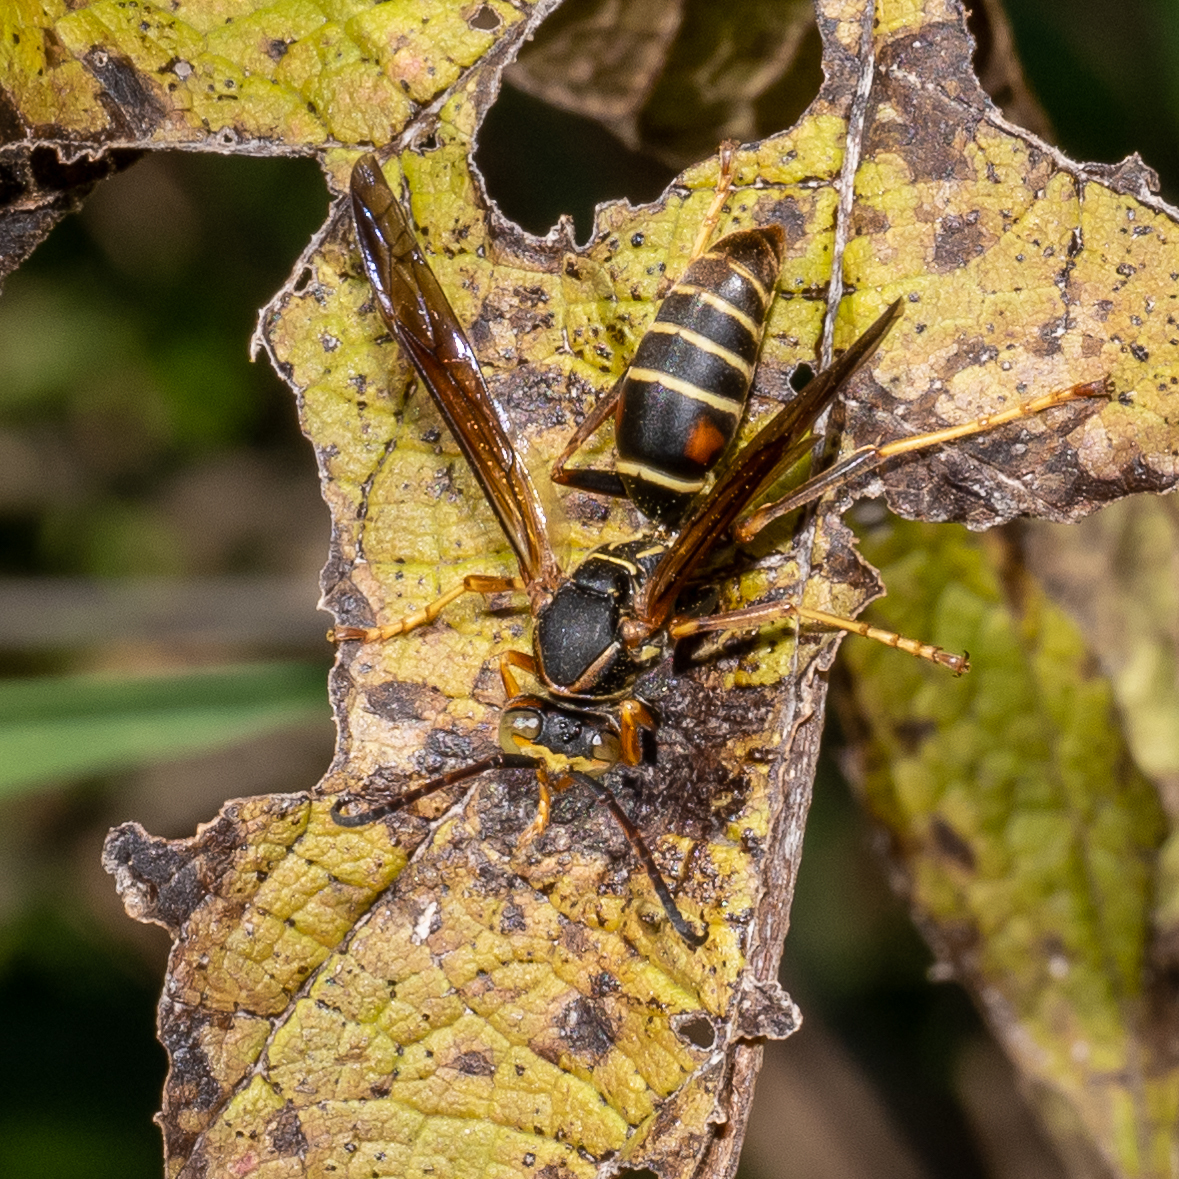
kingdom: Animalia
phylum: Arthropoda
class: Insecta
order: Hymenoptera
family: Eumenidae
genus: Polistes
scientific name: Polistes fuscatus
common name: Dark paper wasp
